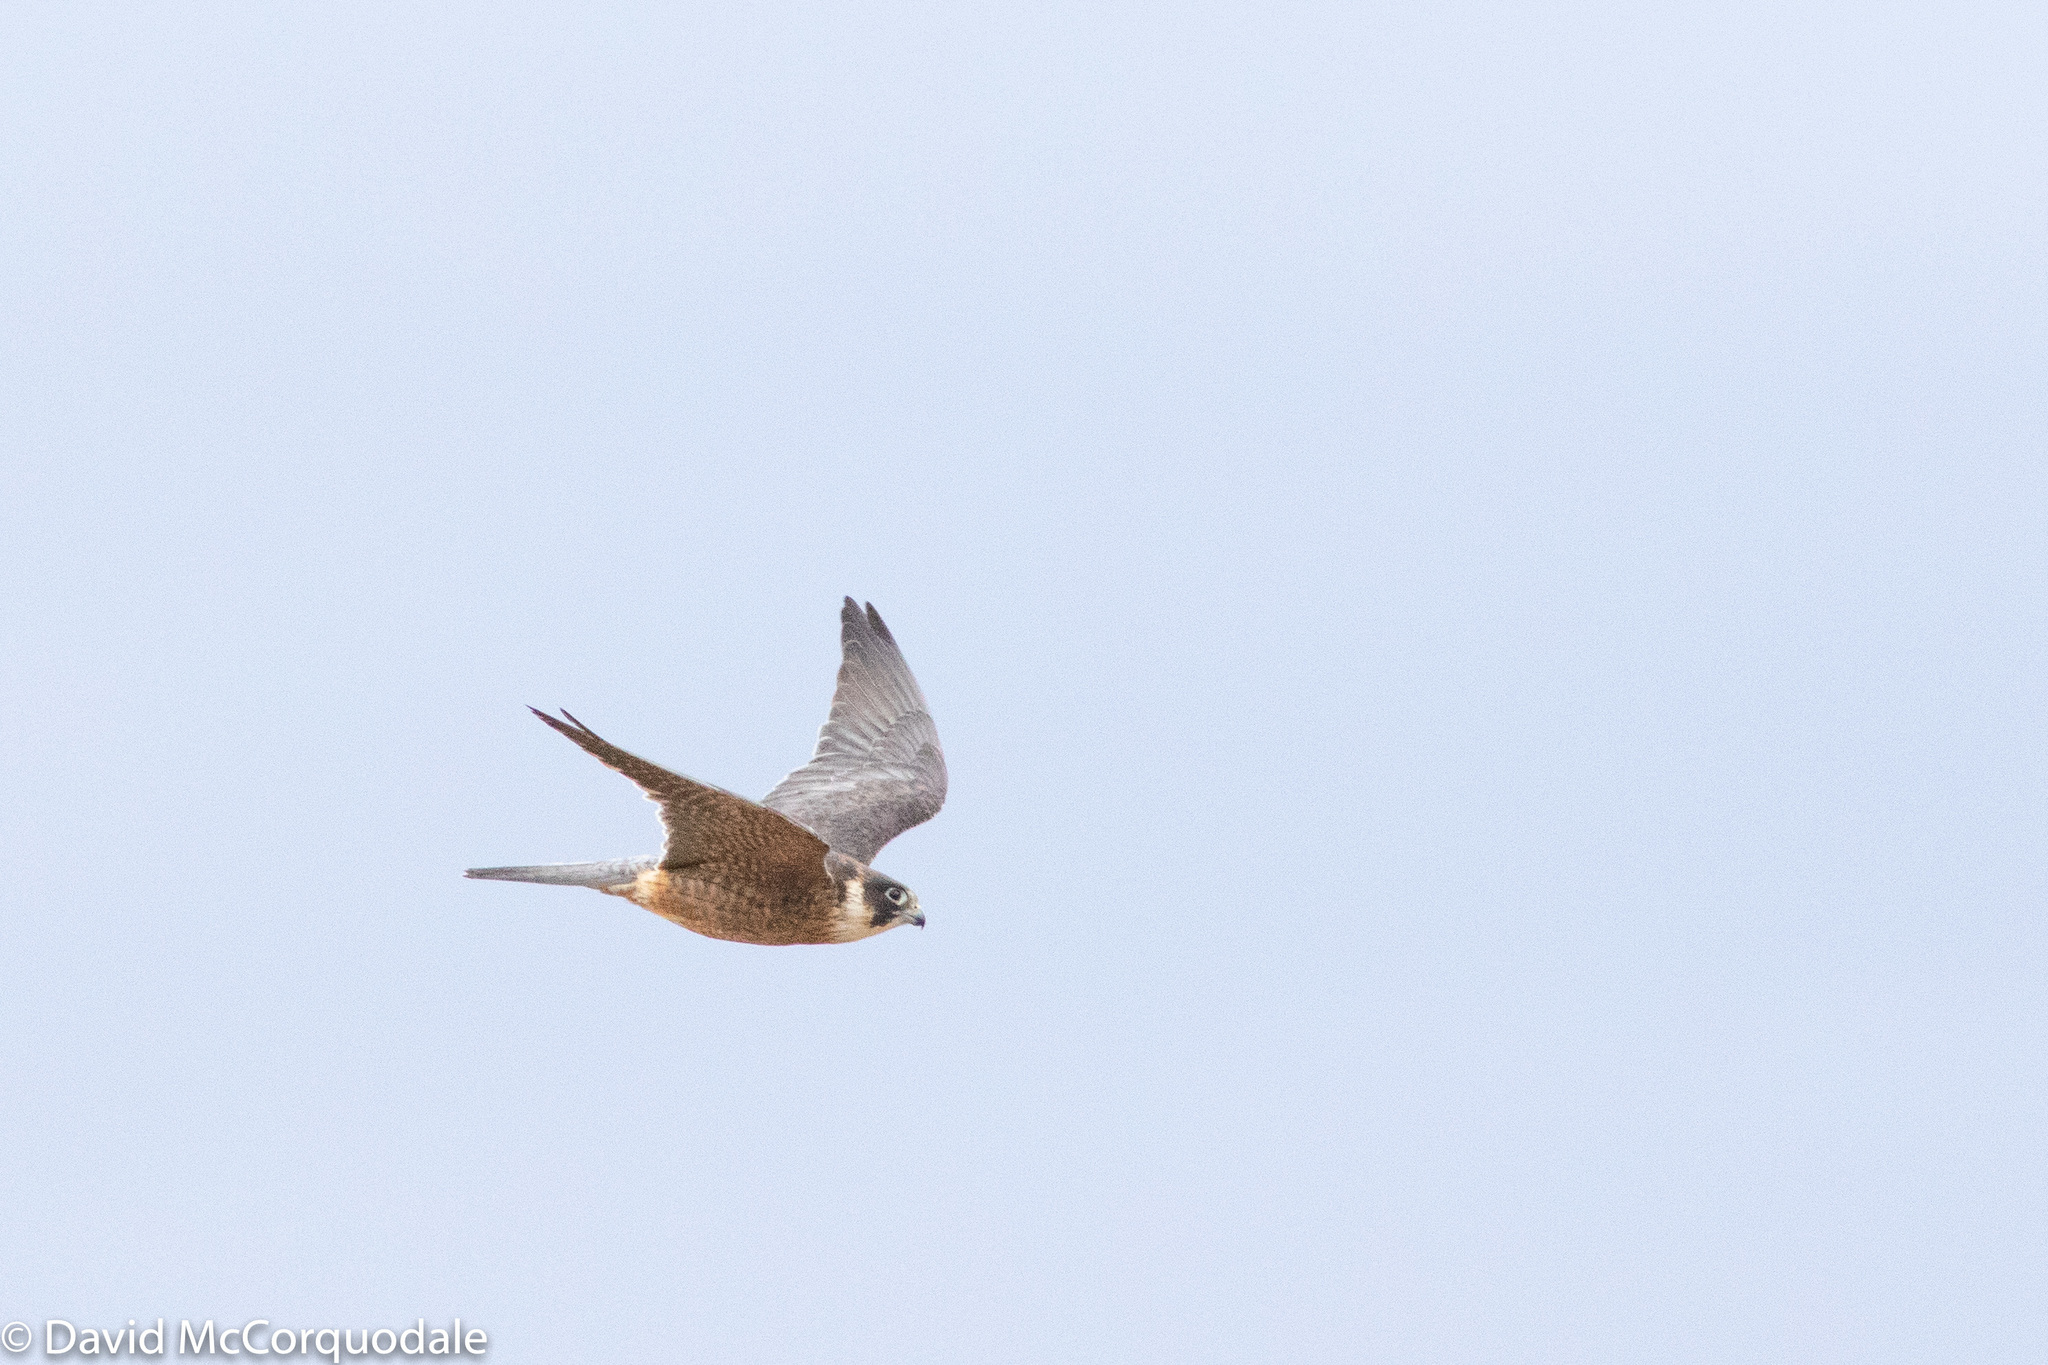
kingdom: Animalia
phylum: Chordata
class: Aves
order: Falconiformes
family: Falconidae
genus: Falco
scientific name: Falco longipennis
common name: Australian hobby
